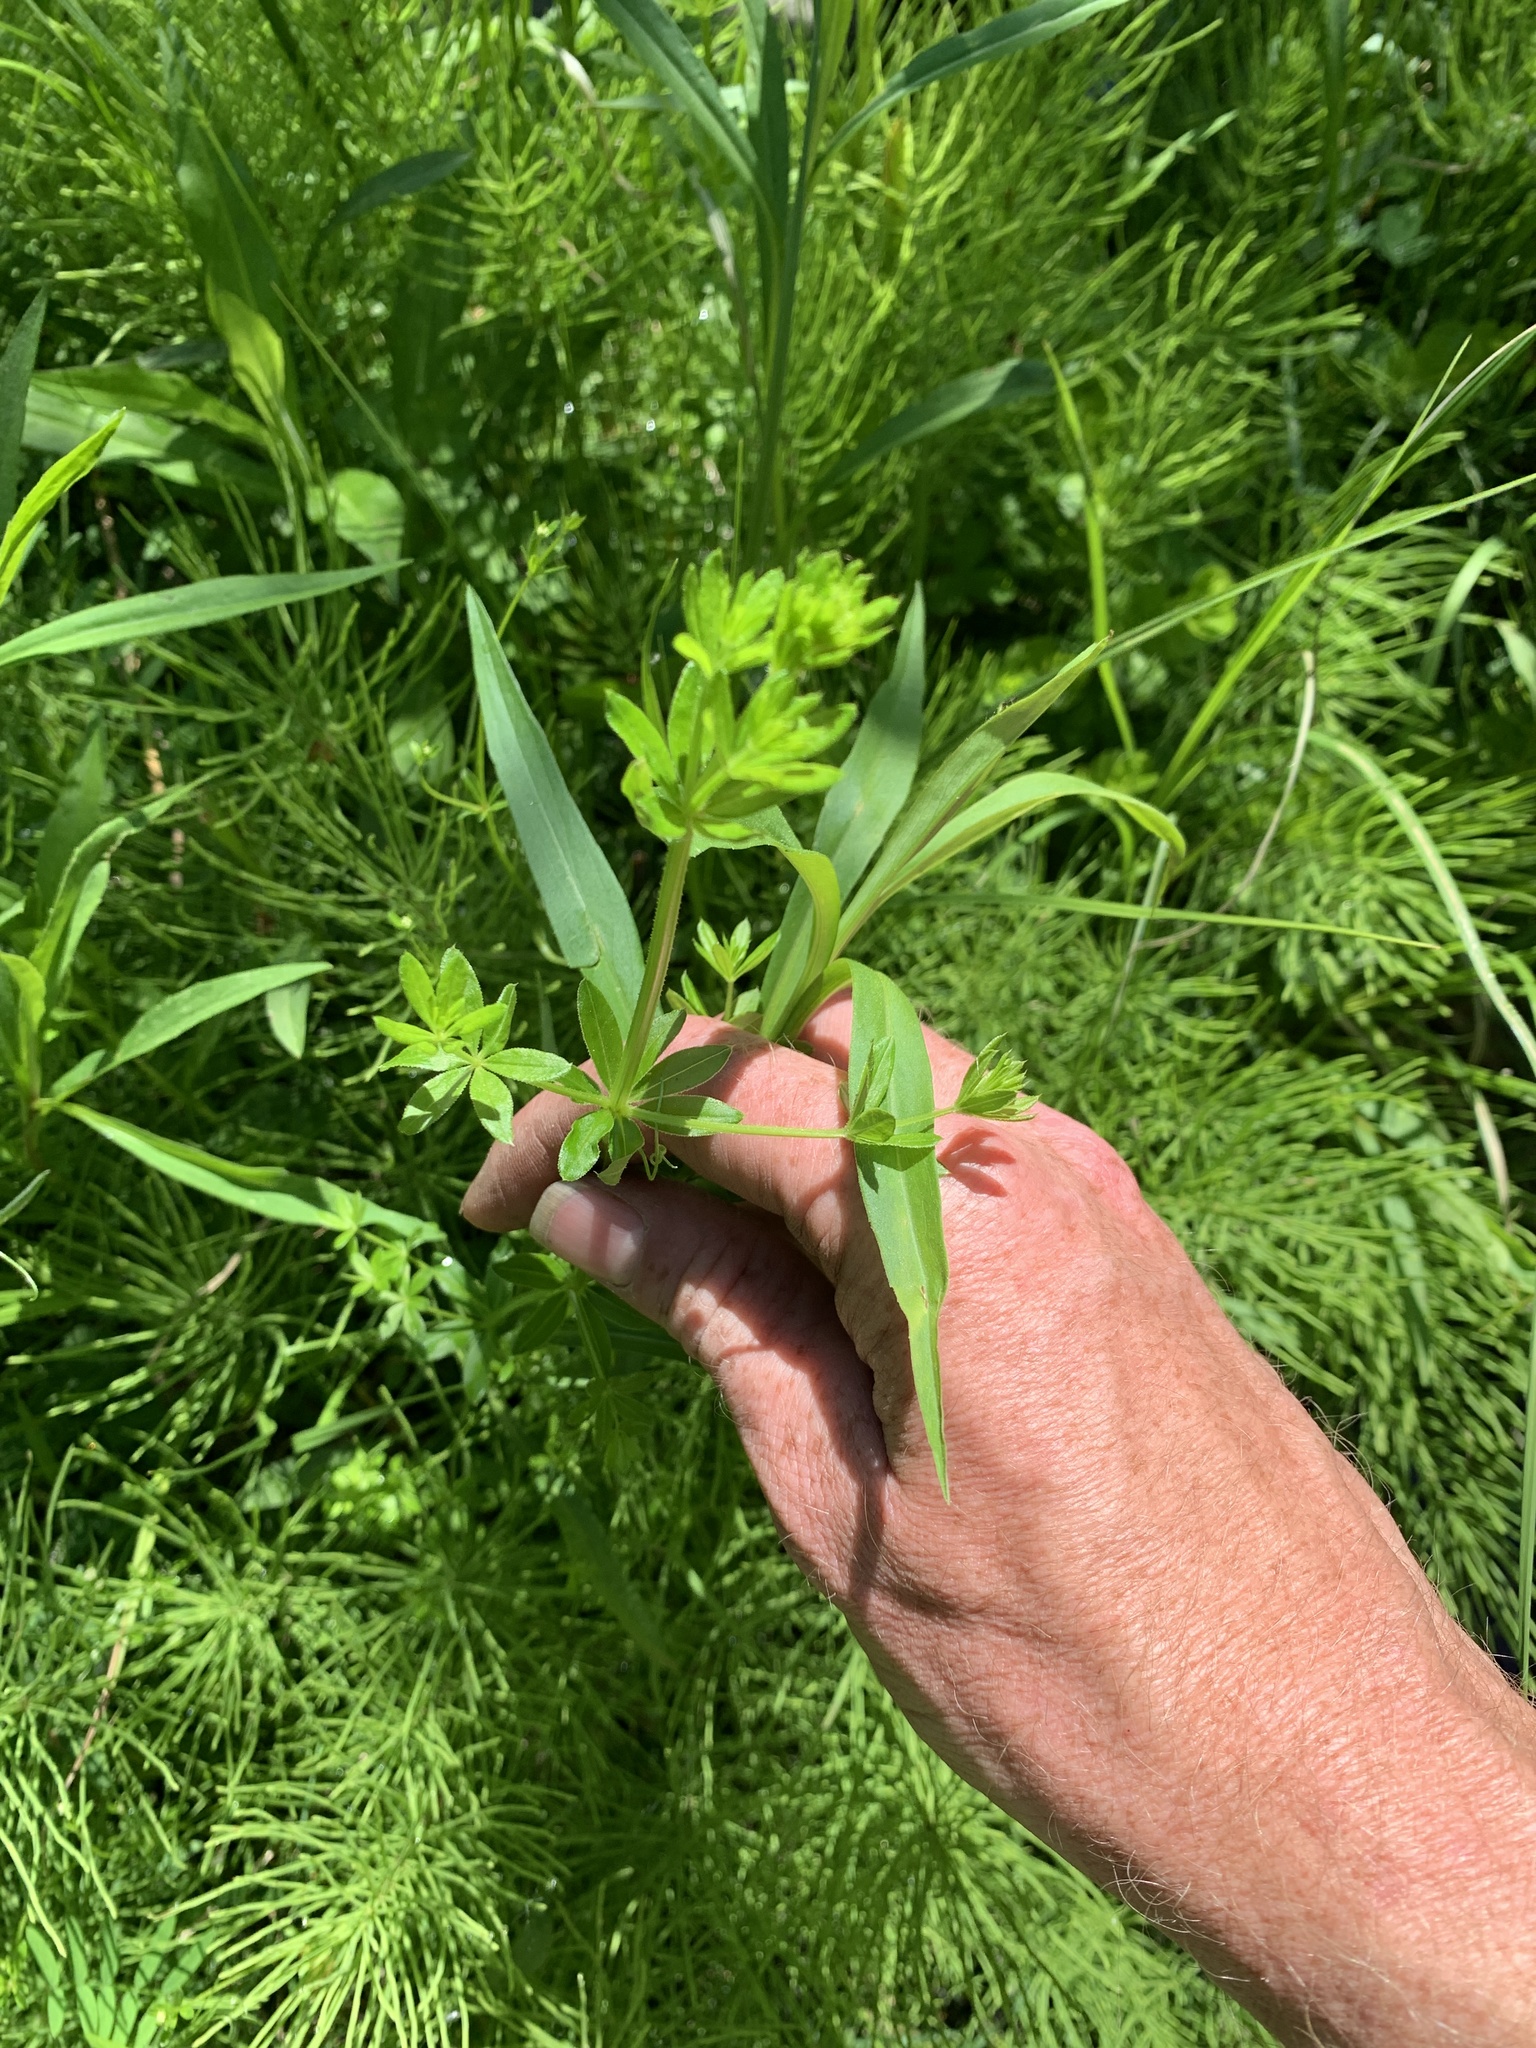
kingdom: Plantae
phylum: Tracheophyta
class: Magnoliopsida
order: Gentianales
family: Rubiaceae
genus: Galium
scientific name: Galium asprellum
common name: Rough bedstraw
